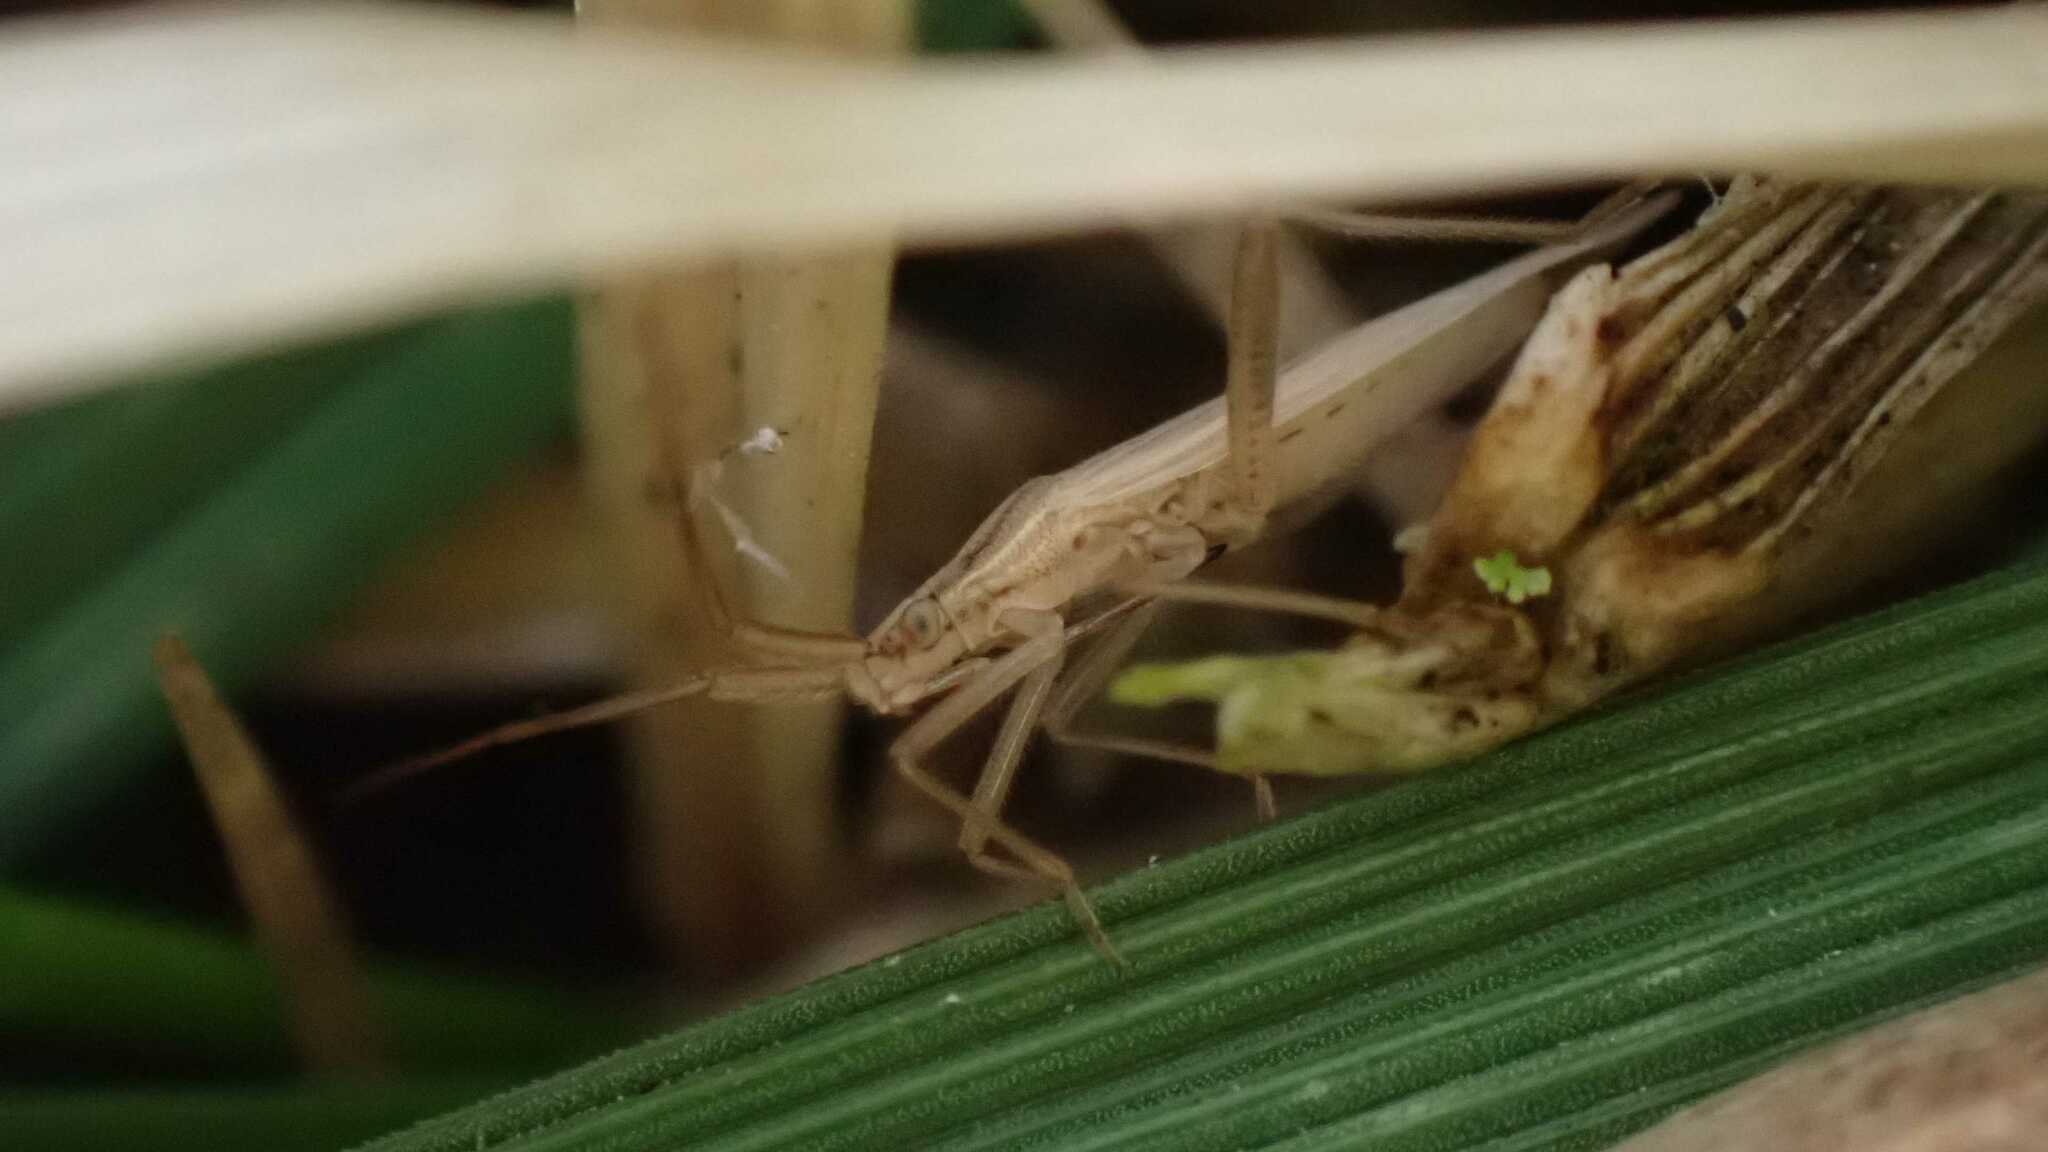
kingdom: Animalia
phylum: Arthropoda
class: Insecta
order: Hemiptera
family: Miridae
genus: Stenodema
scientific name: Stenodema laevigata
